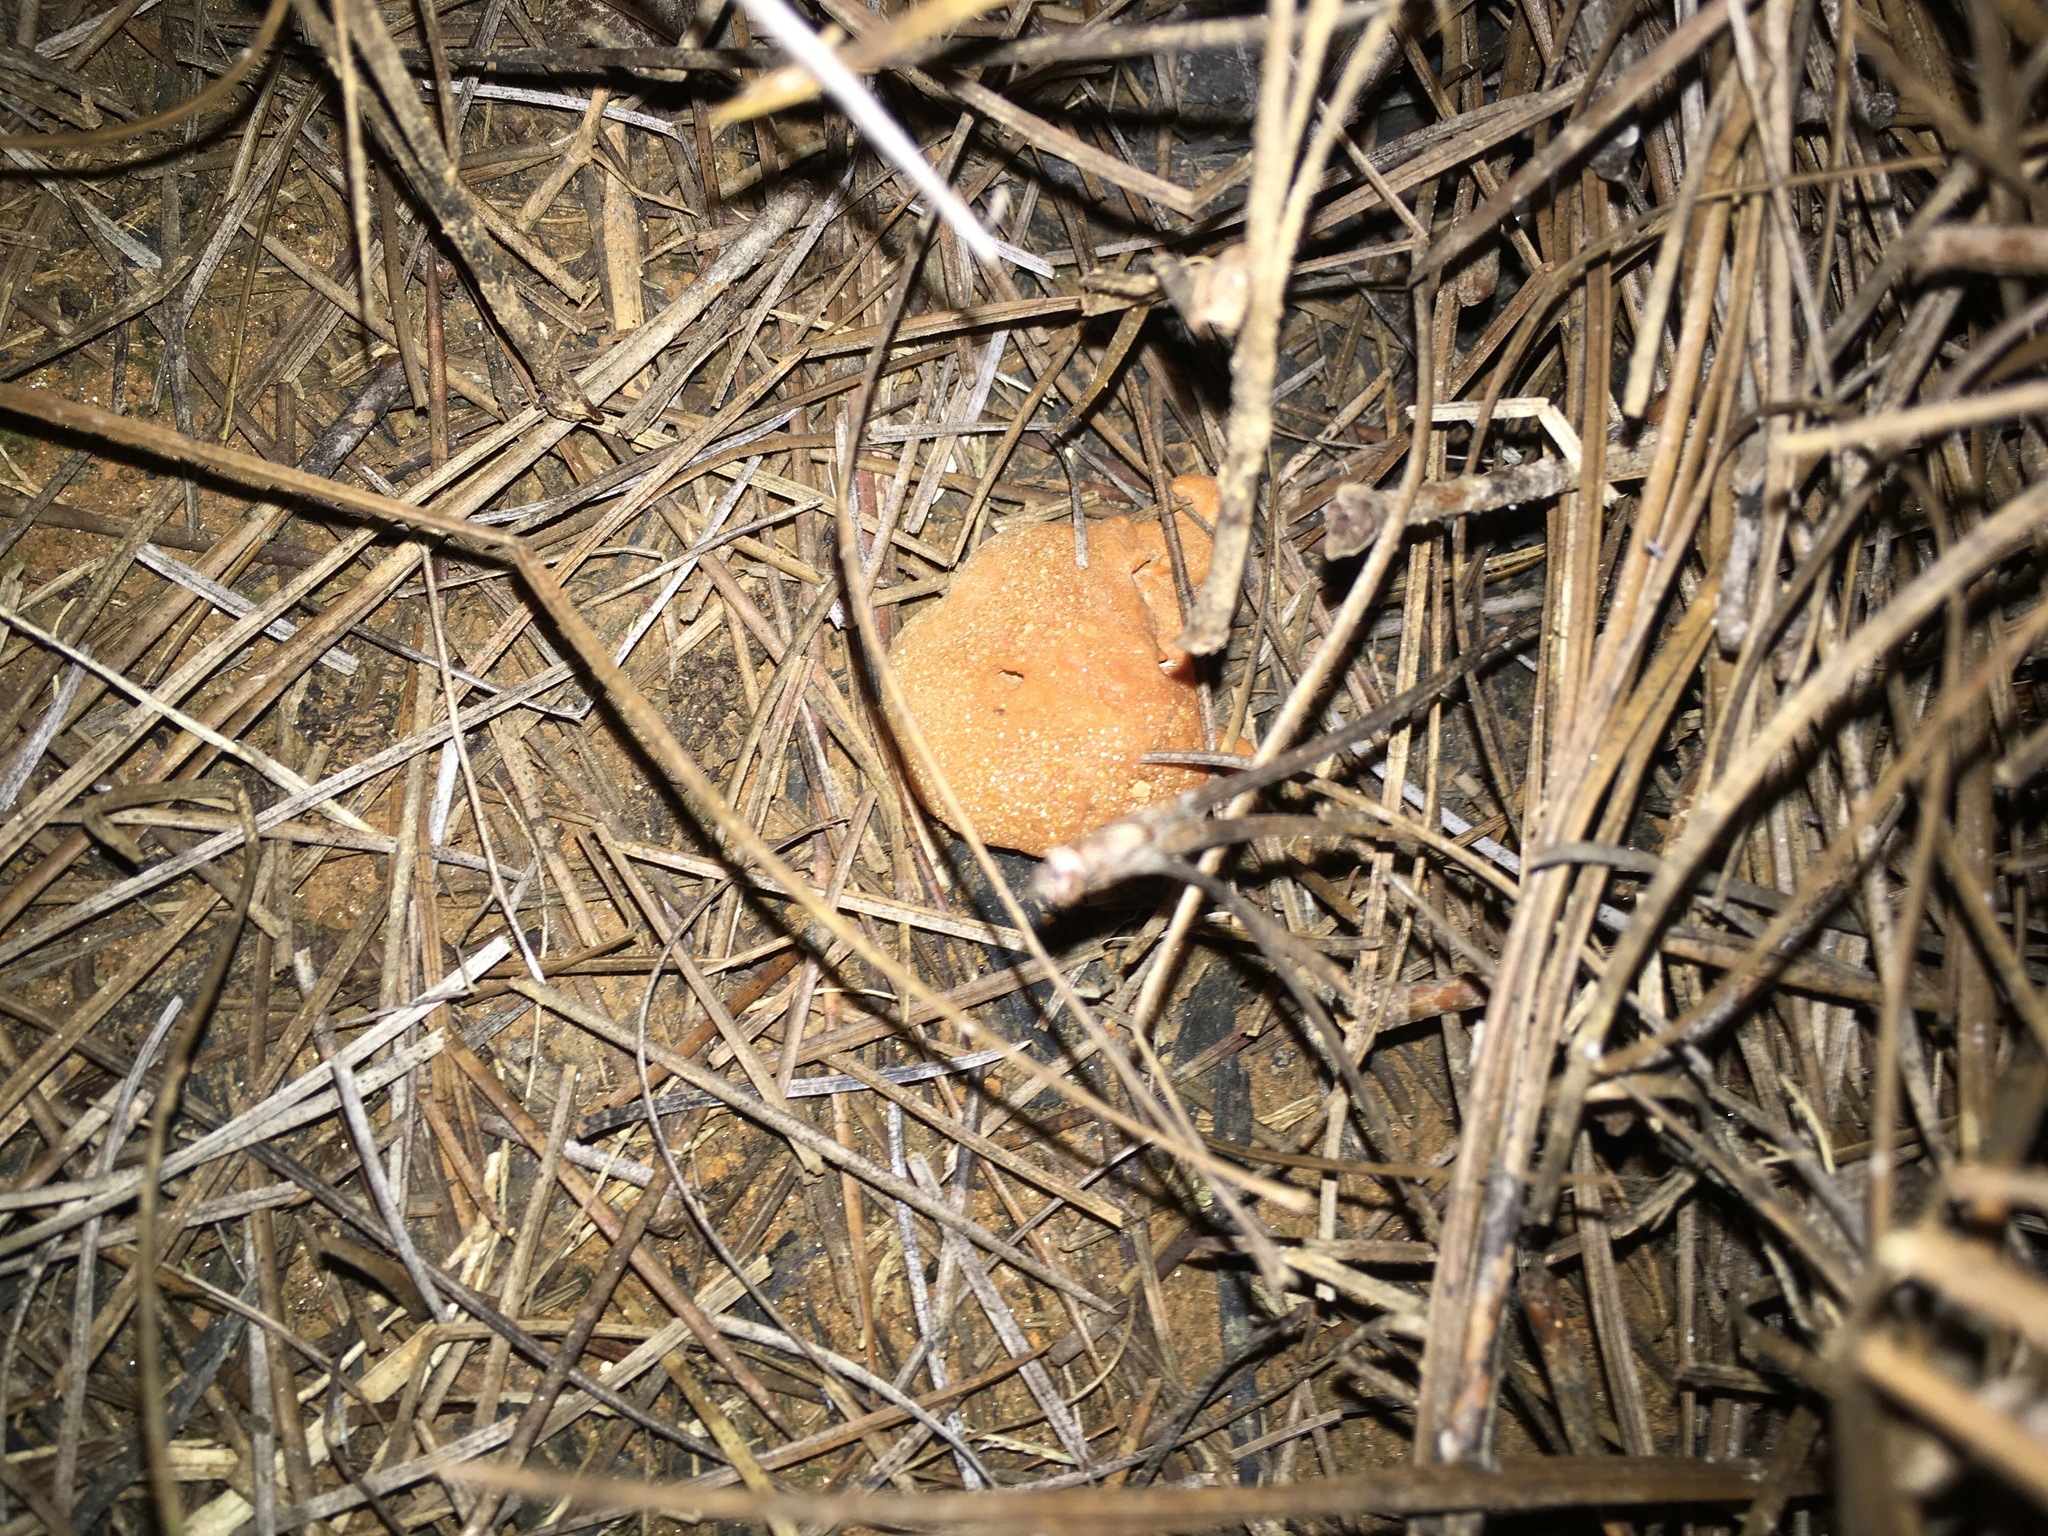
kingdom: Protozoa
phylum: Mycetozoa
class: Myxomycetes
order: Physarales
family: Physaraceae
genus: Fuligo
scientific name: Fuligo septica
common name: Dog vomit slime mold
